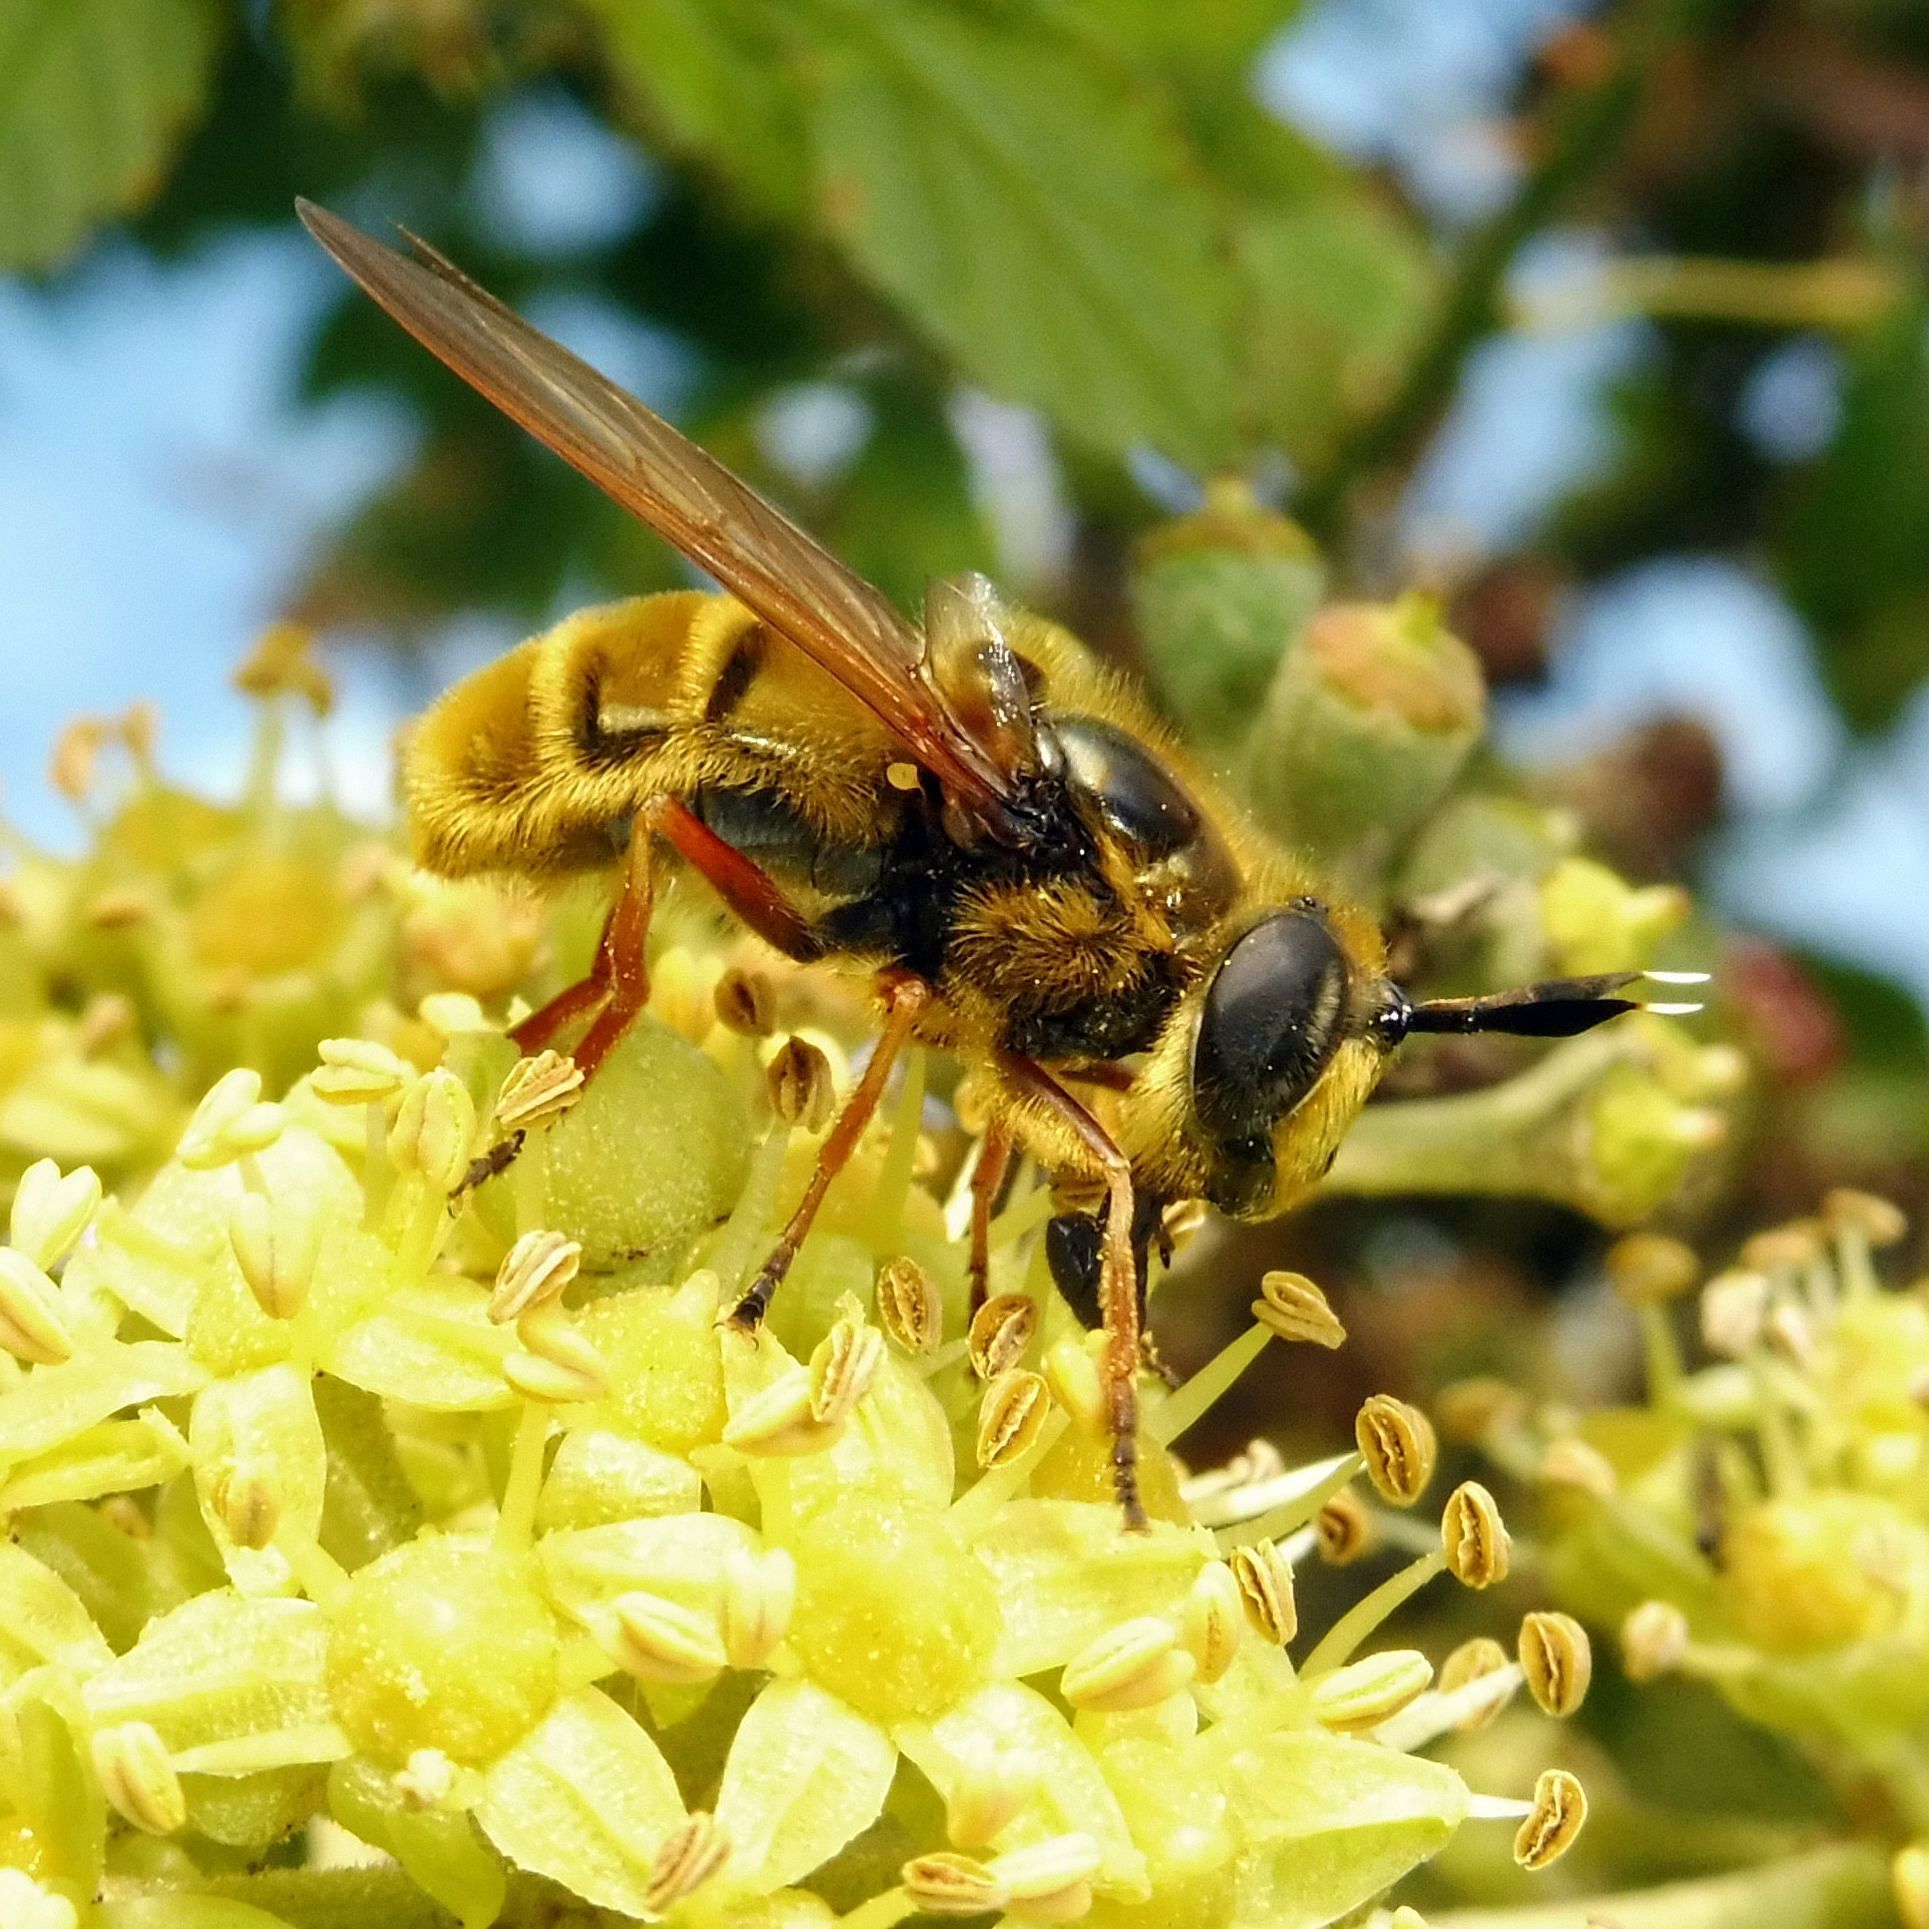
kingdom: Animalia
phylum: Arthropoda
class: Insecta
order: Diptera
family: Syrphidae
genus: Callicera
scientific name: Callicera spinolae
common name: Golden hoverfly
